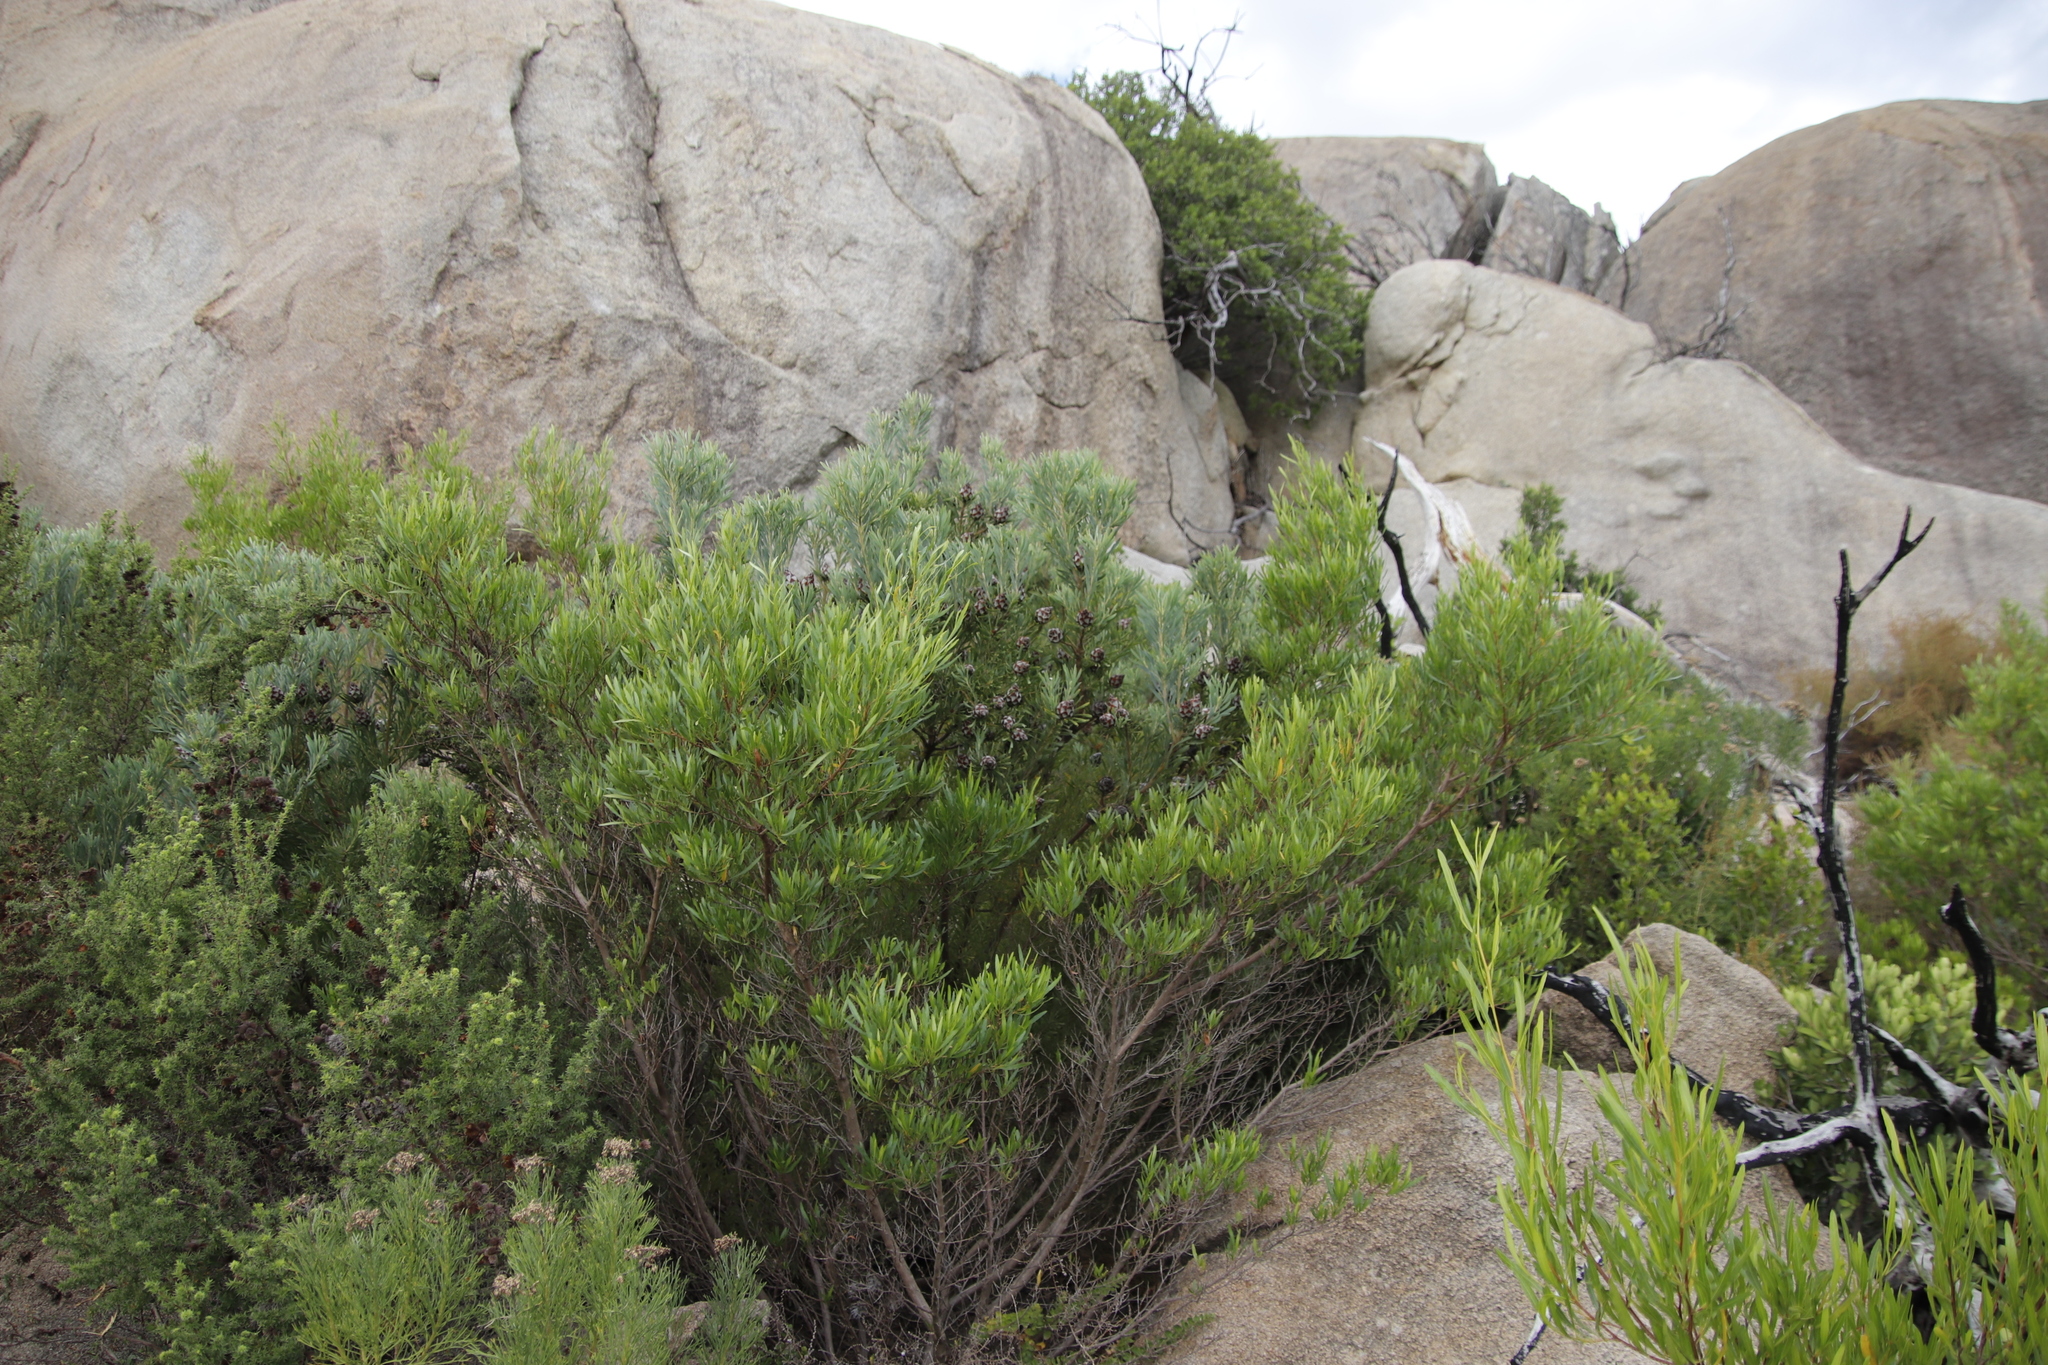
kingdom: Plantae
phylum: Tracheophyta
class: Magnoliopsida
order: Proteales
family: Proteaceae
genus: Leucadendron
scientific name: Leucadendron rubrum
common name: Spinning top
